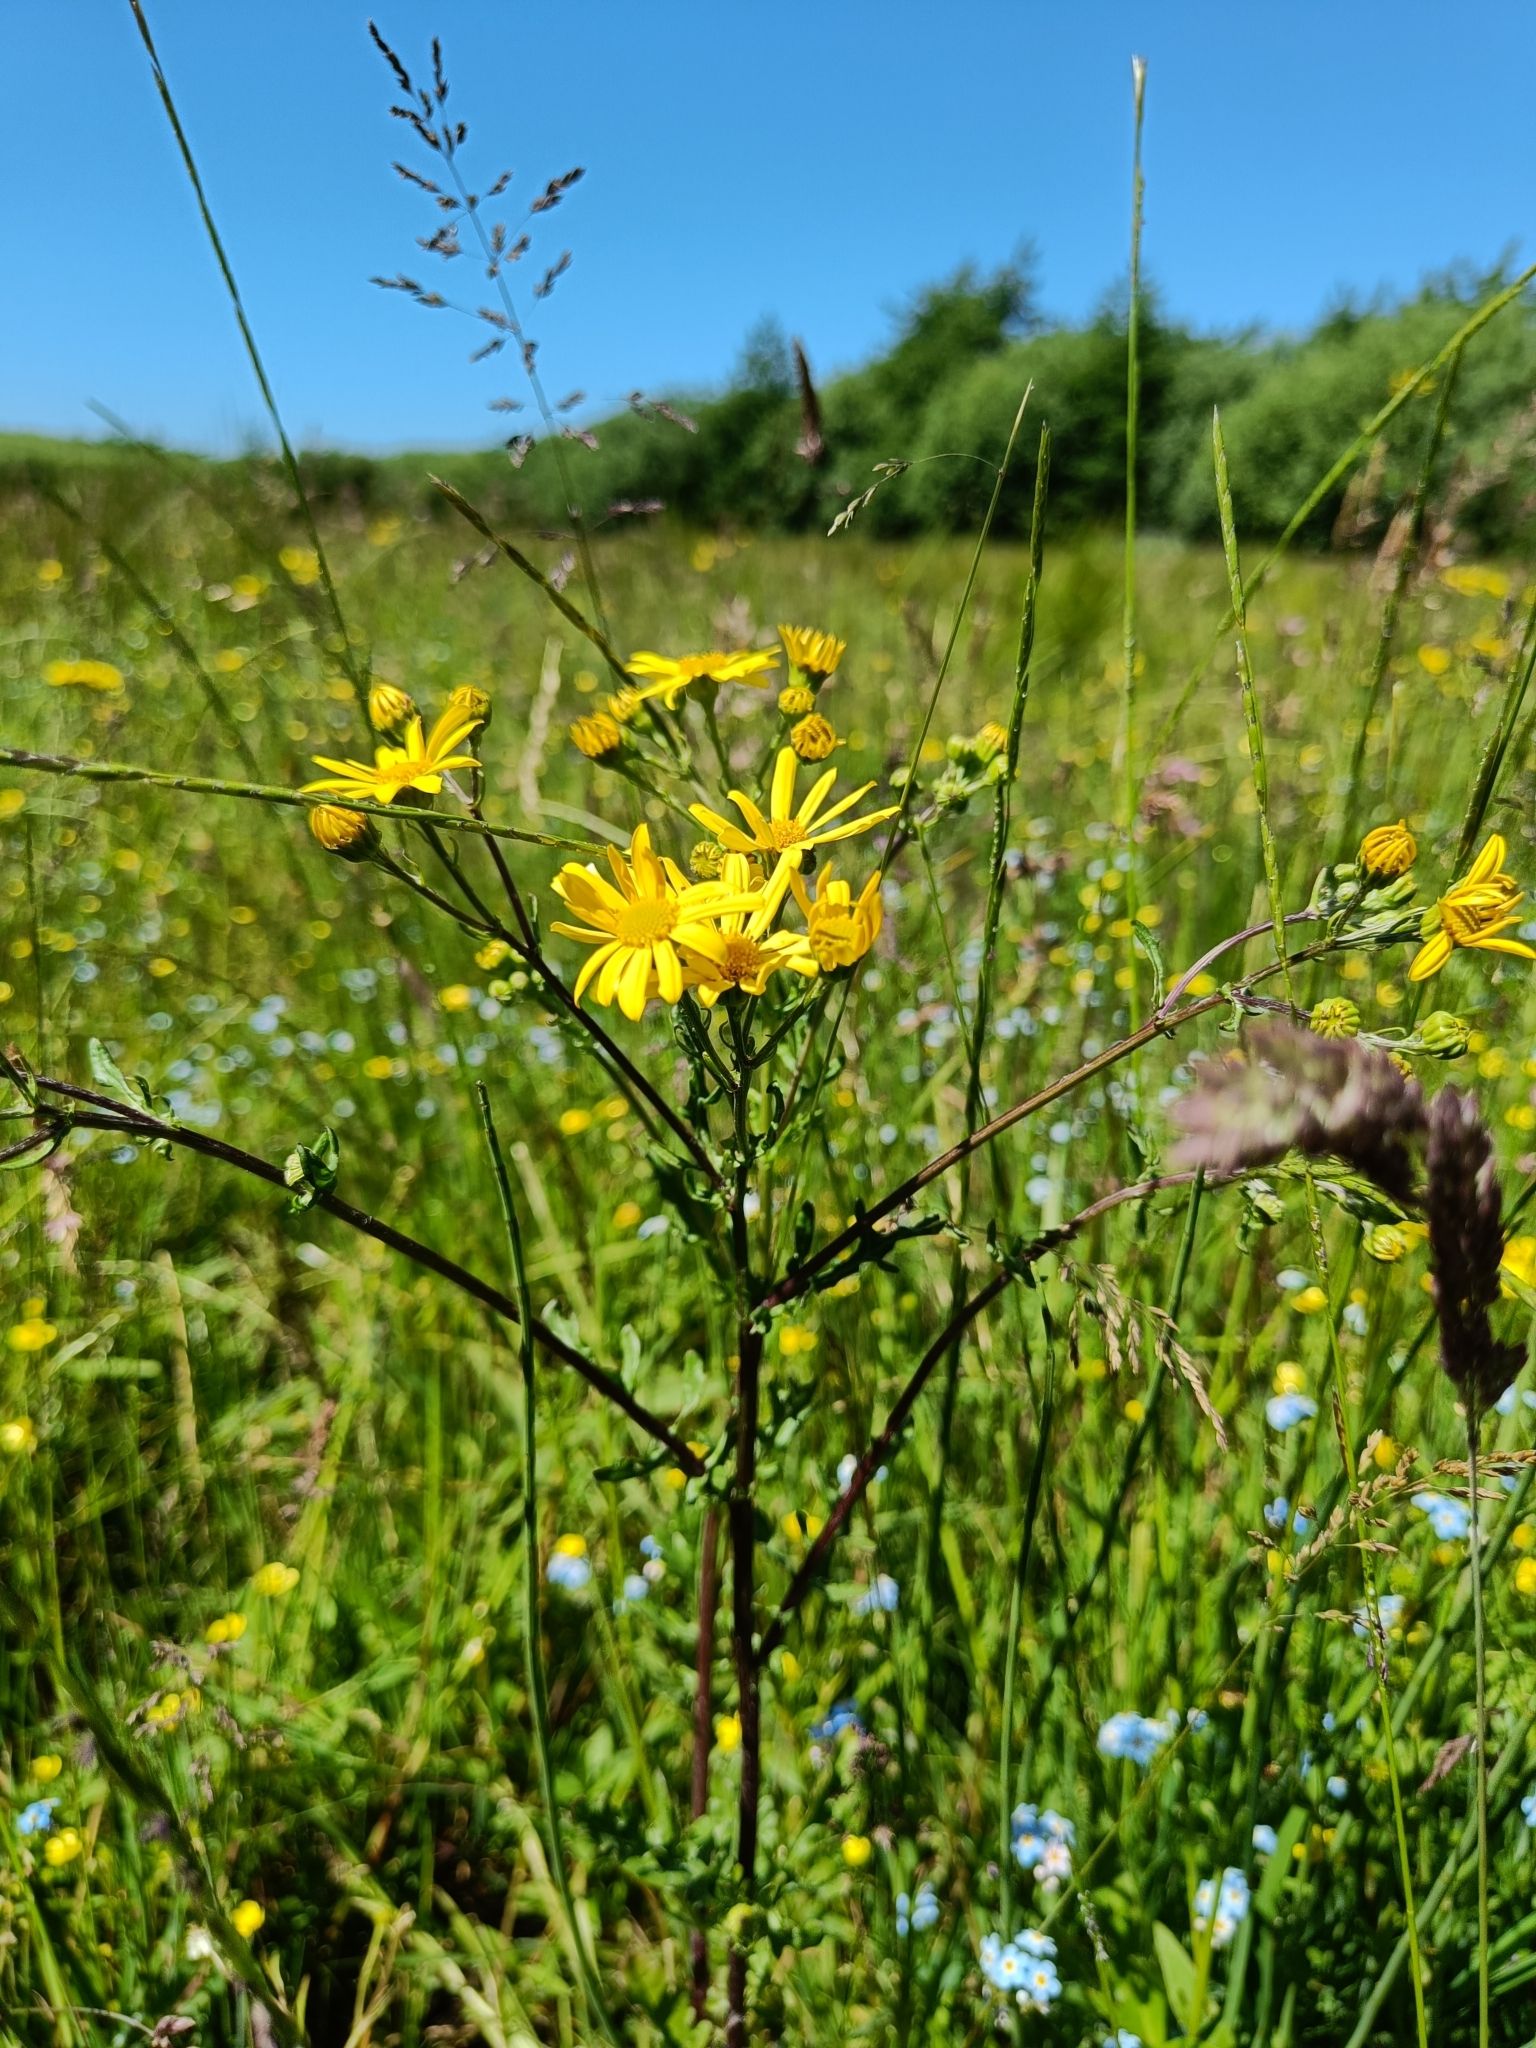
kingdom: Plantae
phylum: Tracheophyta
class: Magnoliopsida
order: Asterales
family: Asteraceae
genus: Jacobaea
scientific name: Jacobaea vulgaris
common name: Stinking willie
